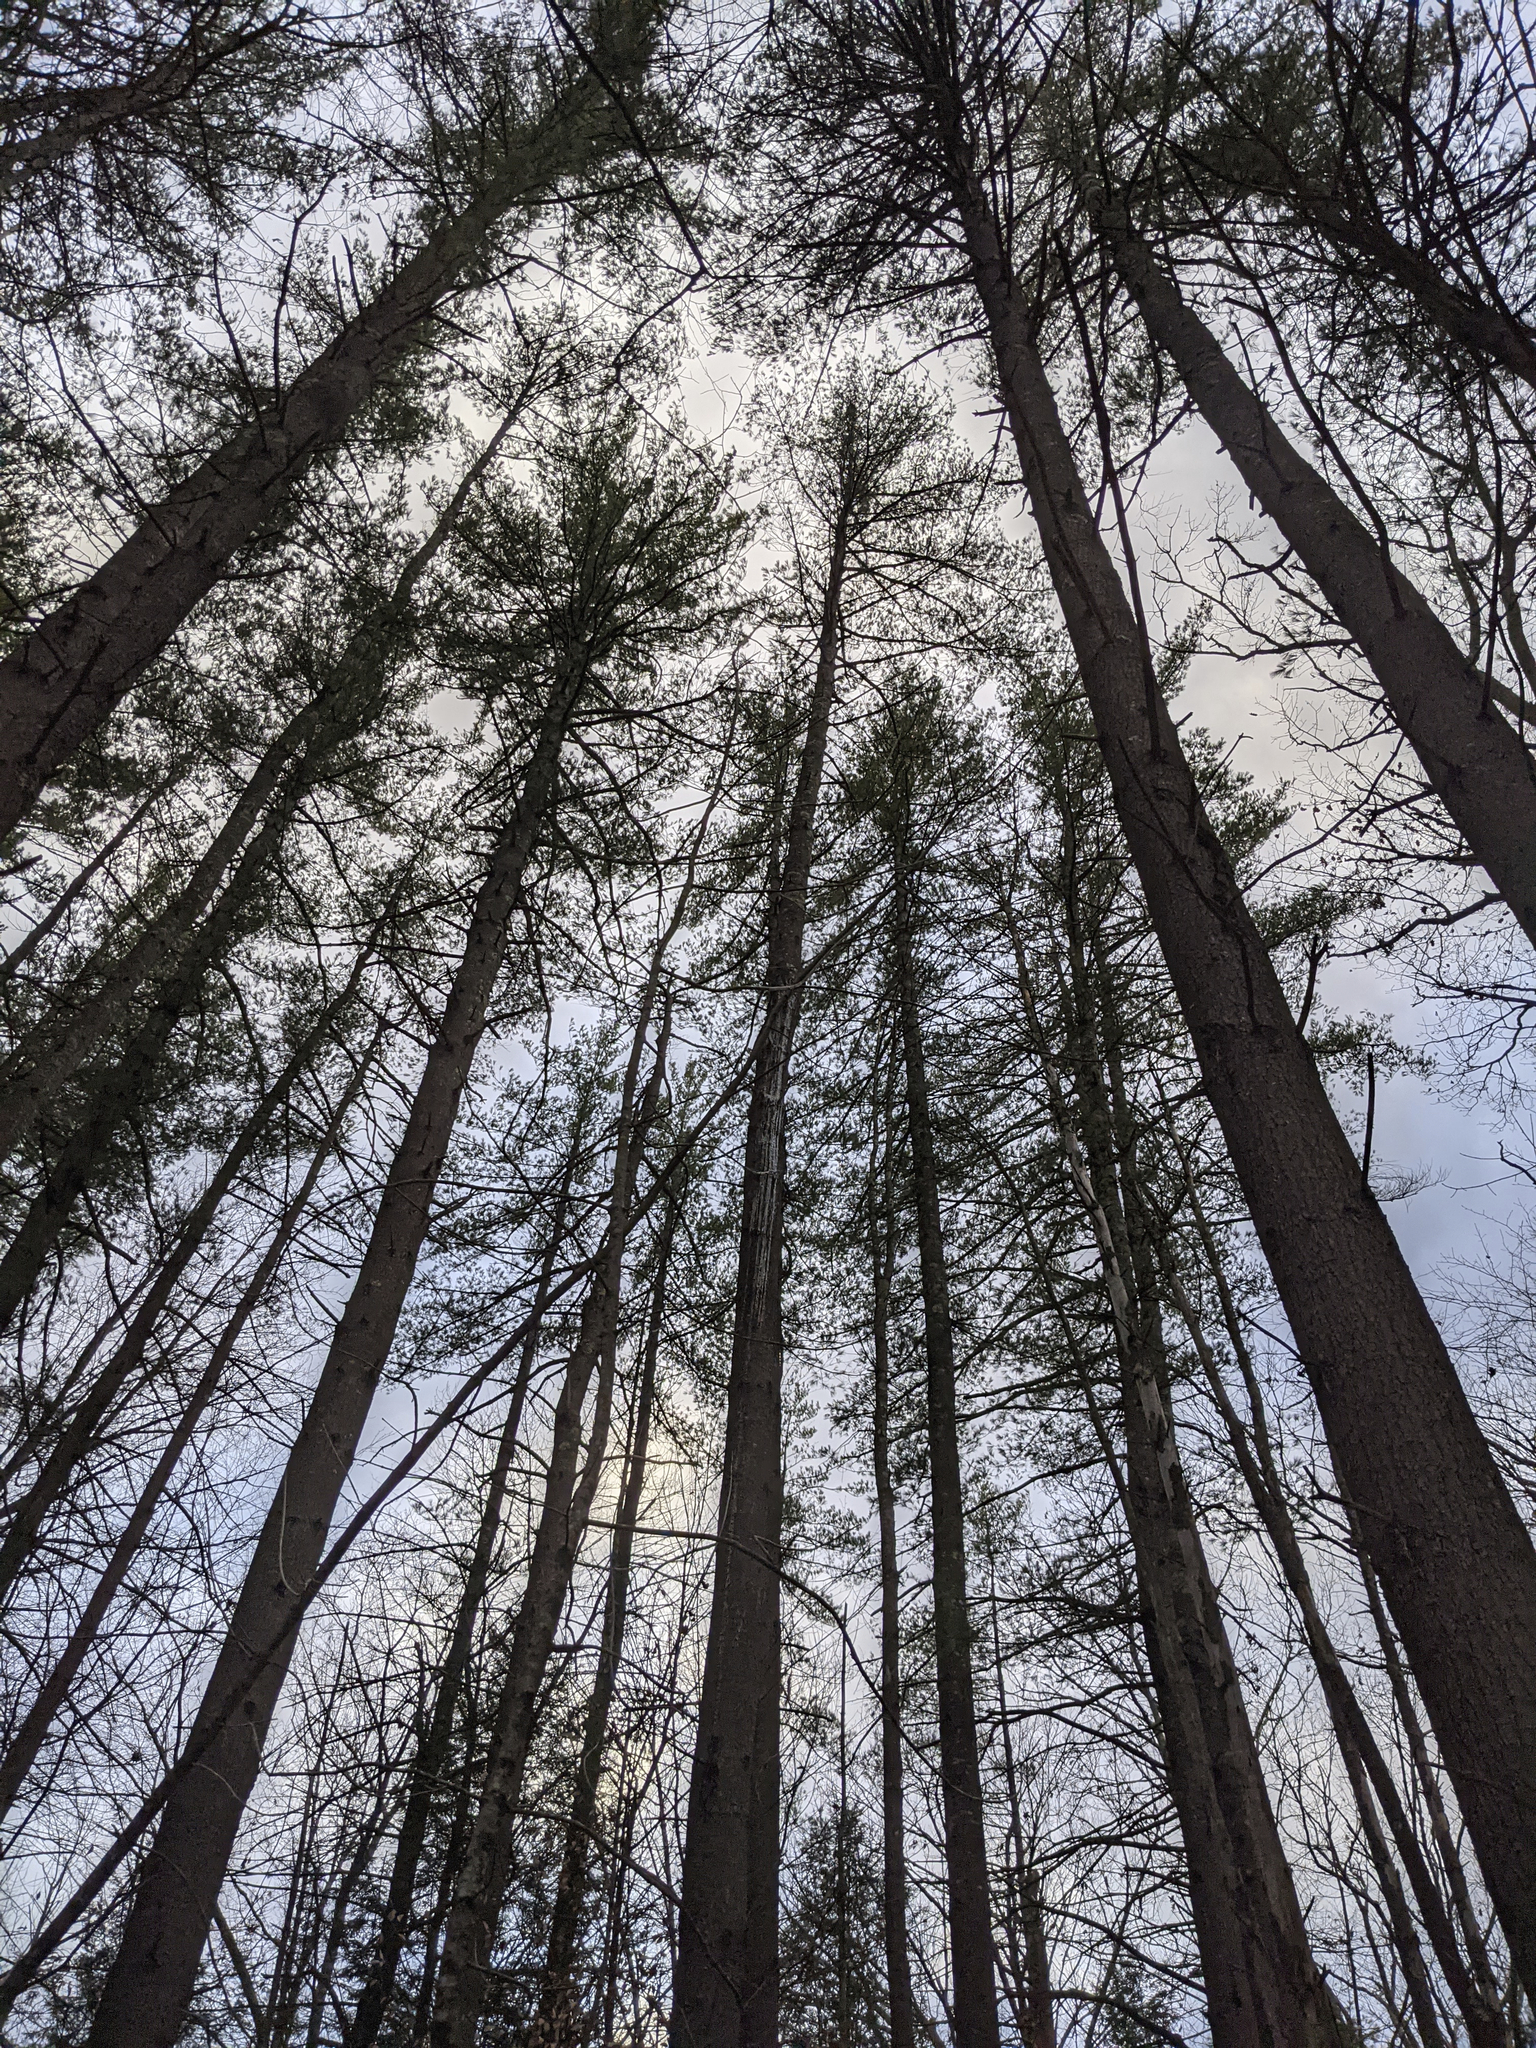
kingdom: Plantae
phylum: Tracheophyta
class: Pinopsida
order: Pinales
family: Pinaceae
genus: Pinus
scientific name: Pinus strobus
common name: Weymouth pine
